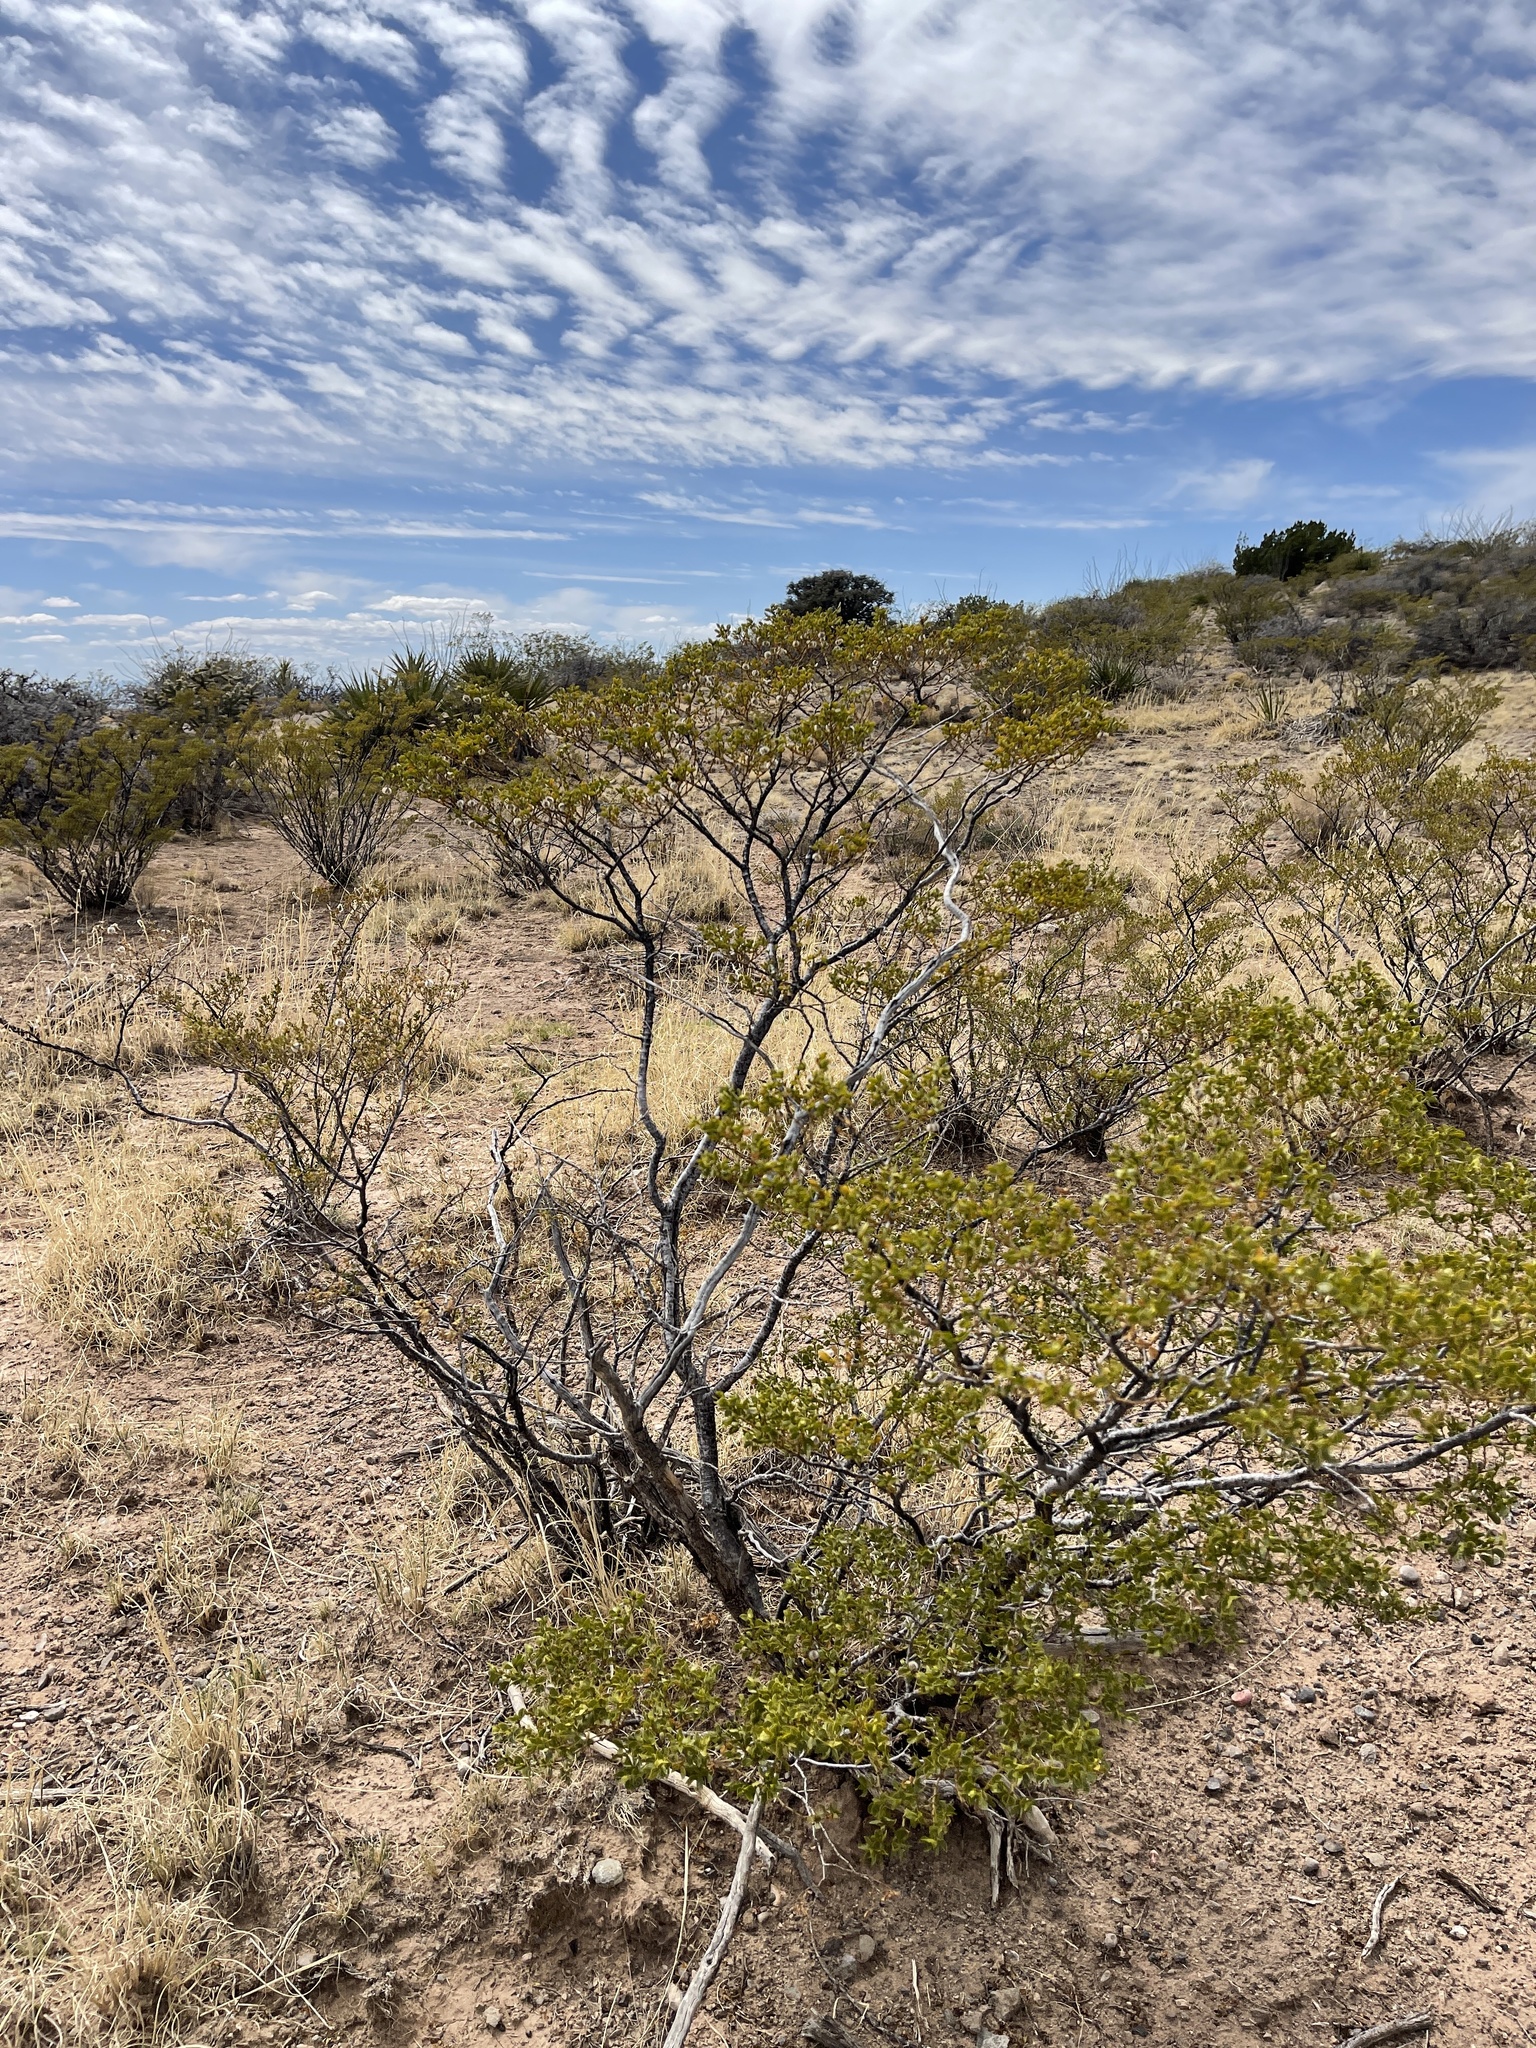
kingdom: Plantae
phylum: Tracheophyta
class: Magnoliopsida
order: Zygophyllales
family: Zygophyllaceae
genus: Larrea
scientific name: Larrea tridentata
